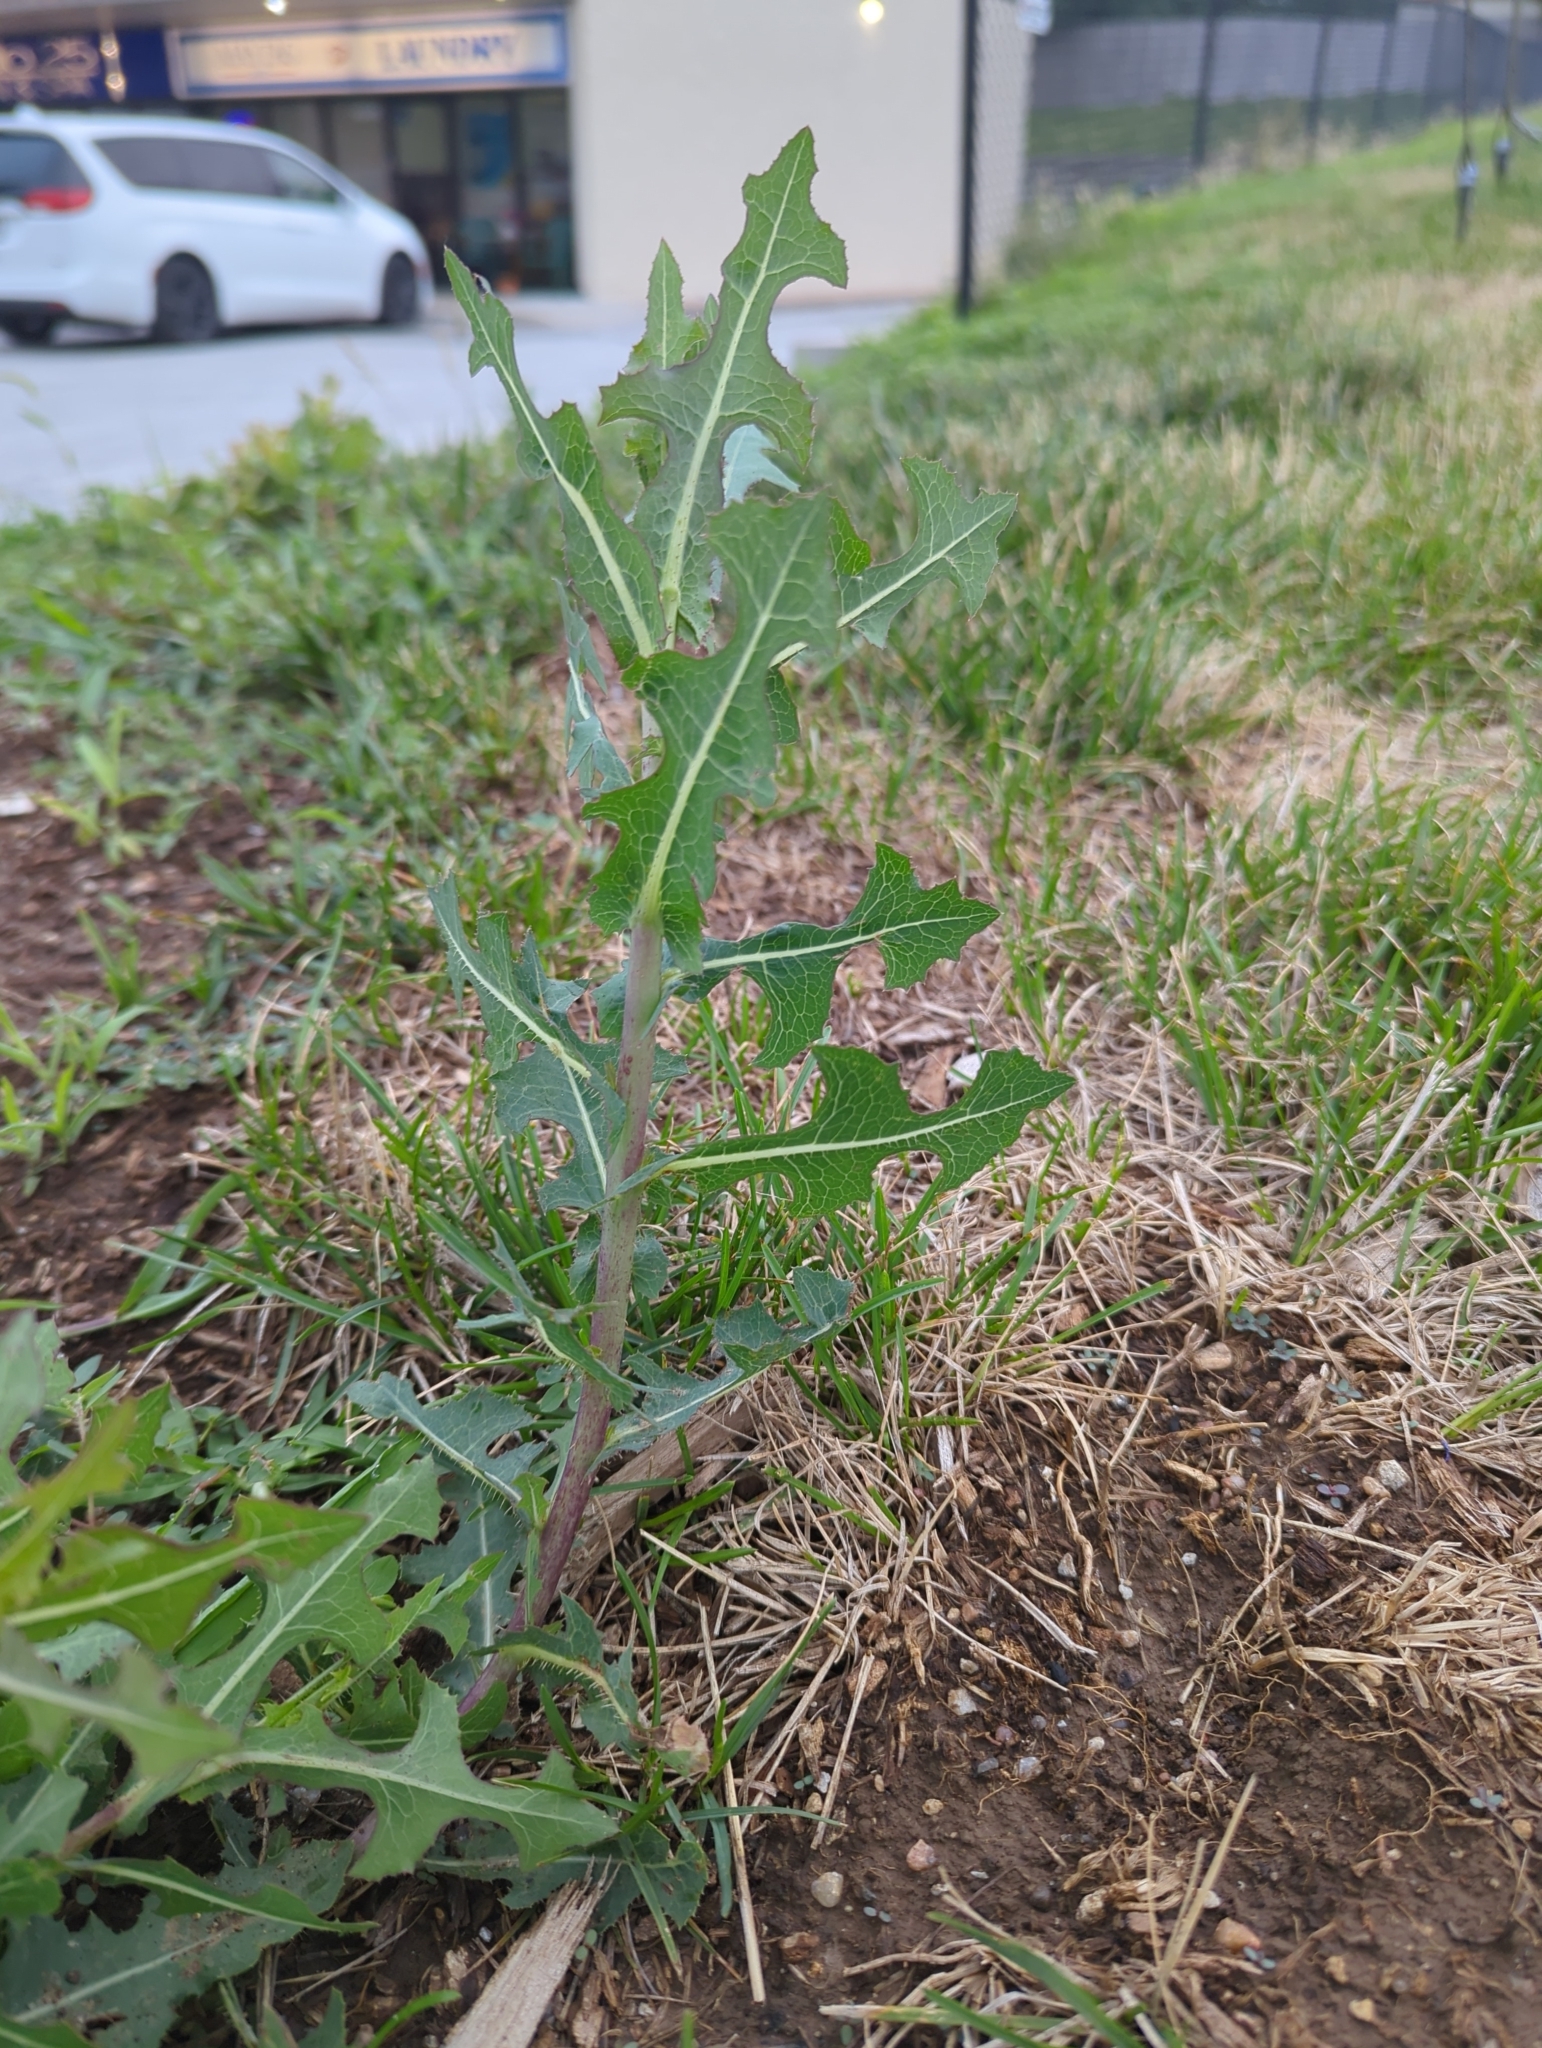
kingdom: Plantae
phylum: Tracheophyta
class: Magnoliopsida
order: Asterales
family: Asteraceae
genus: Lactuca
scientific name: Lactuca serriola
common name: Prickly lettuce
